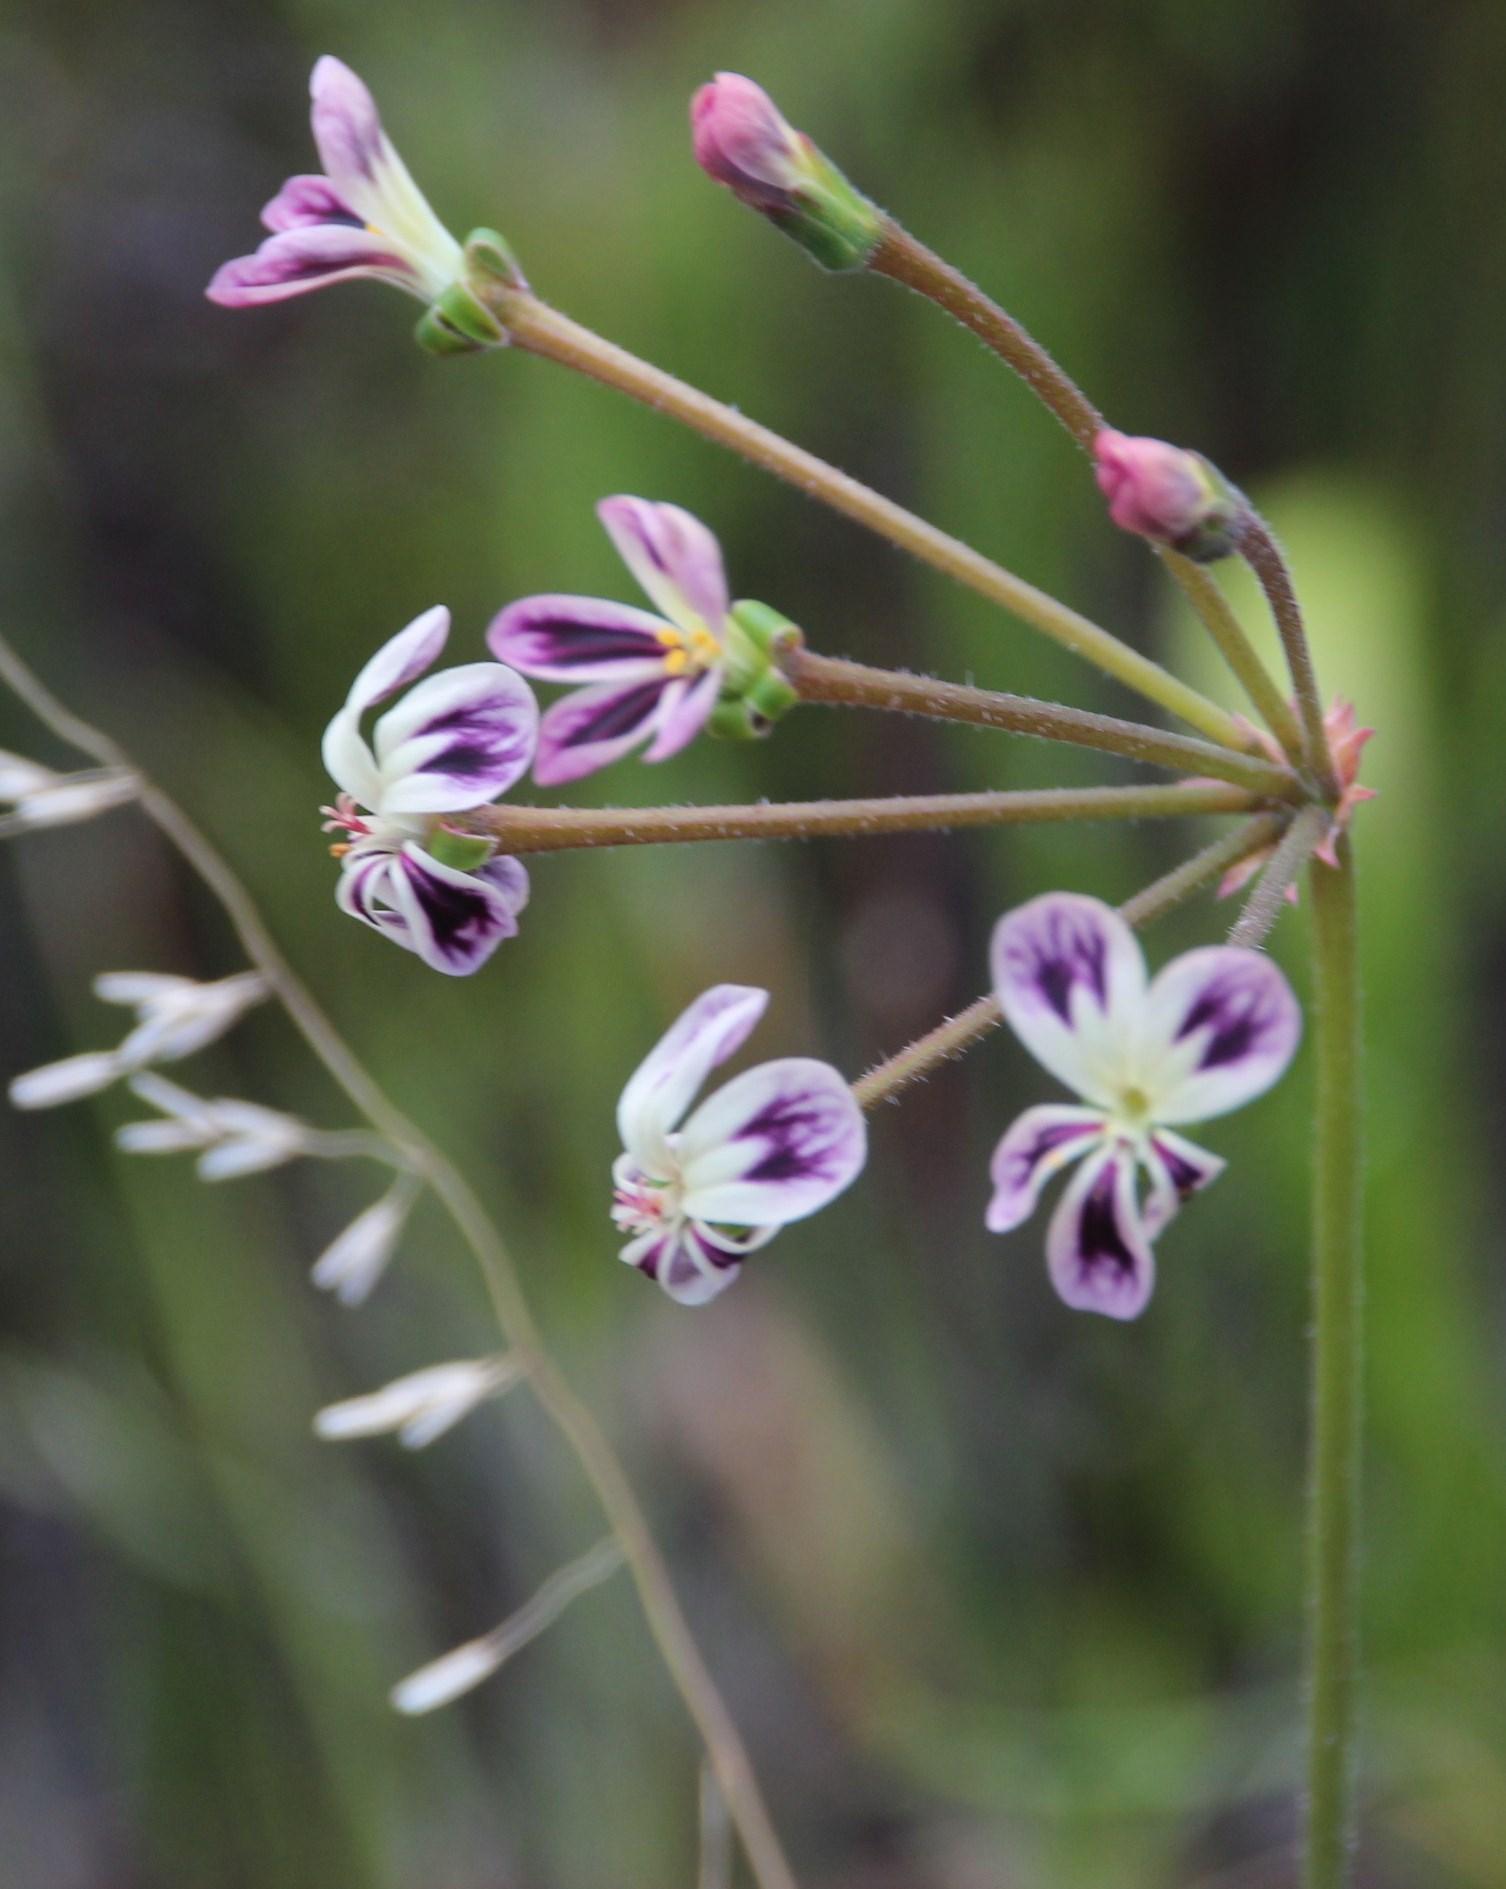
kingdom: Plantae
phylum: Tracheophyta
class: Magnoliopsida
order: Geraniales
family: Geraniaceae
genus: Pelargonium
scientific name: Pelargonium triste
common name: Night-scent pelargonium
